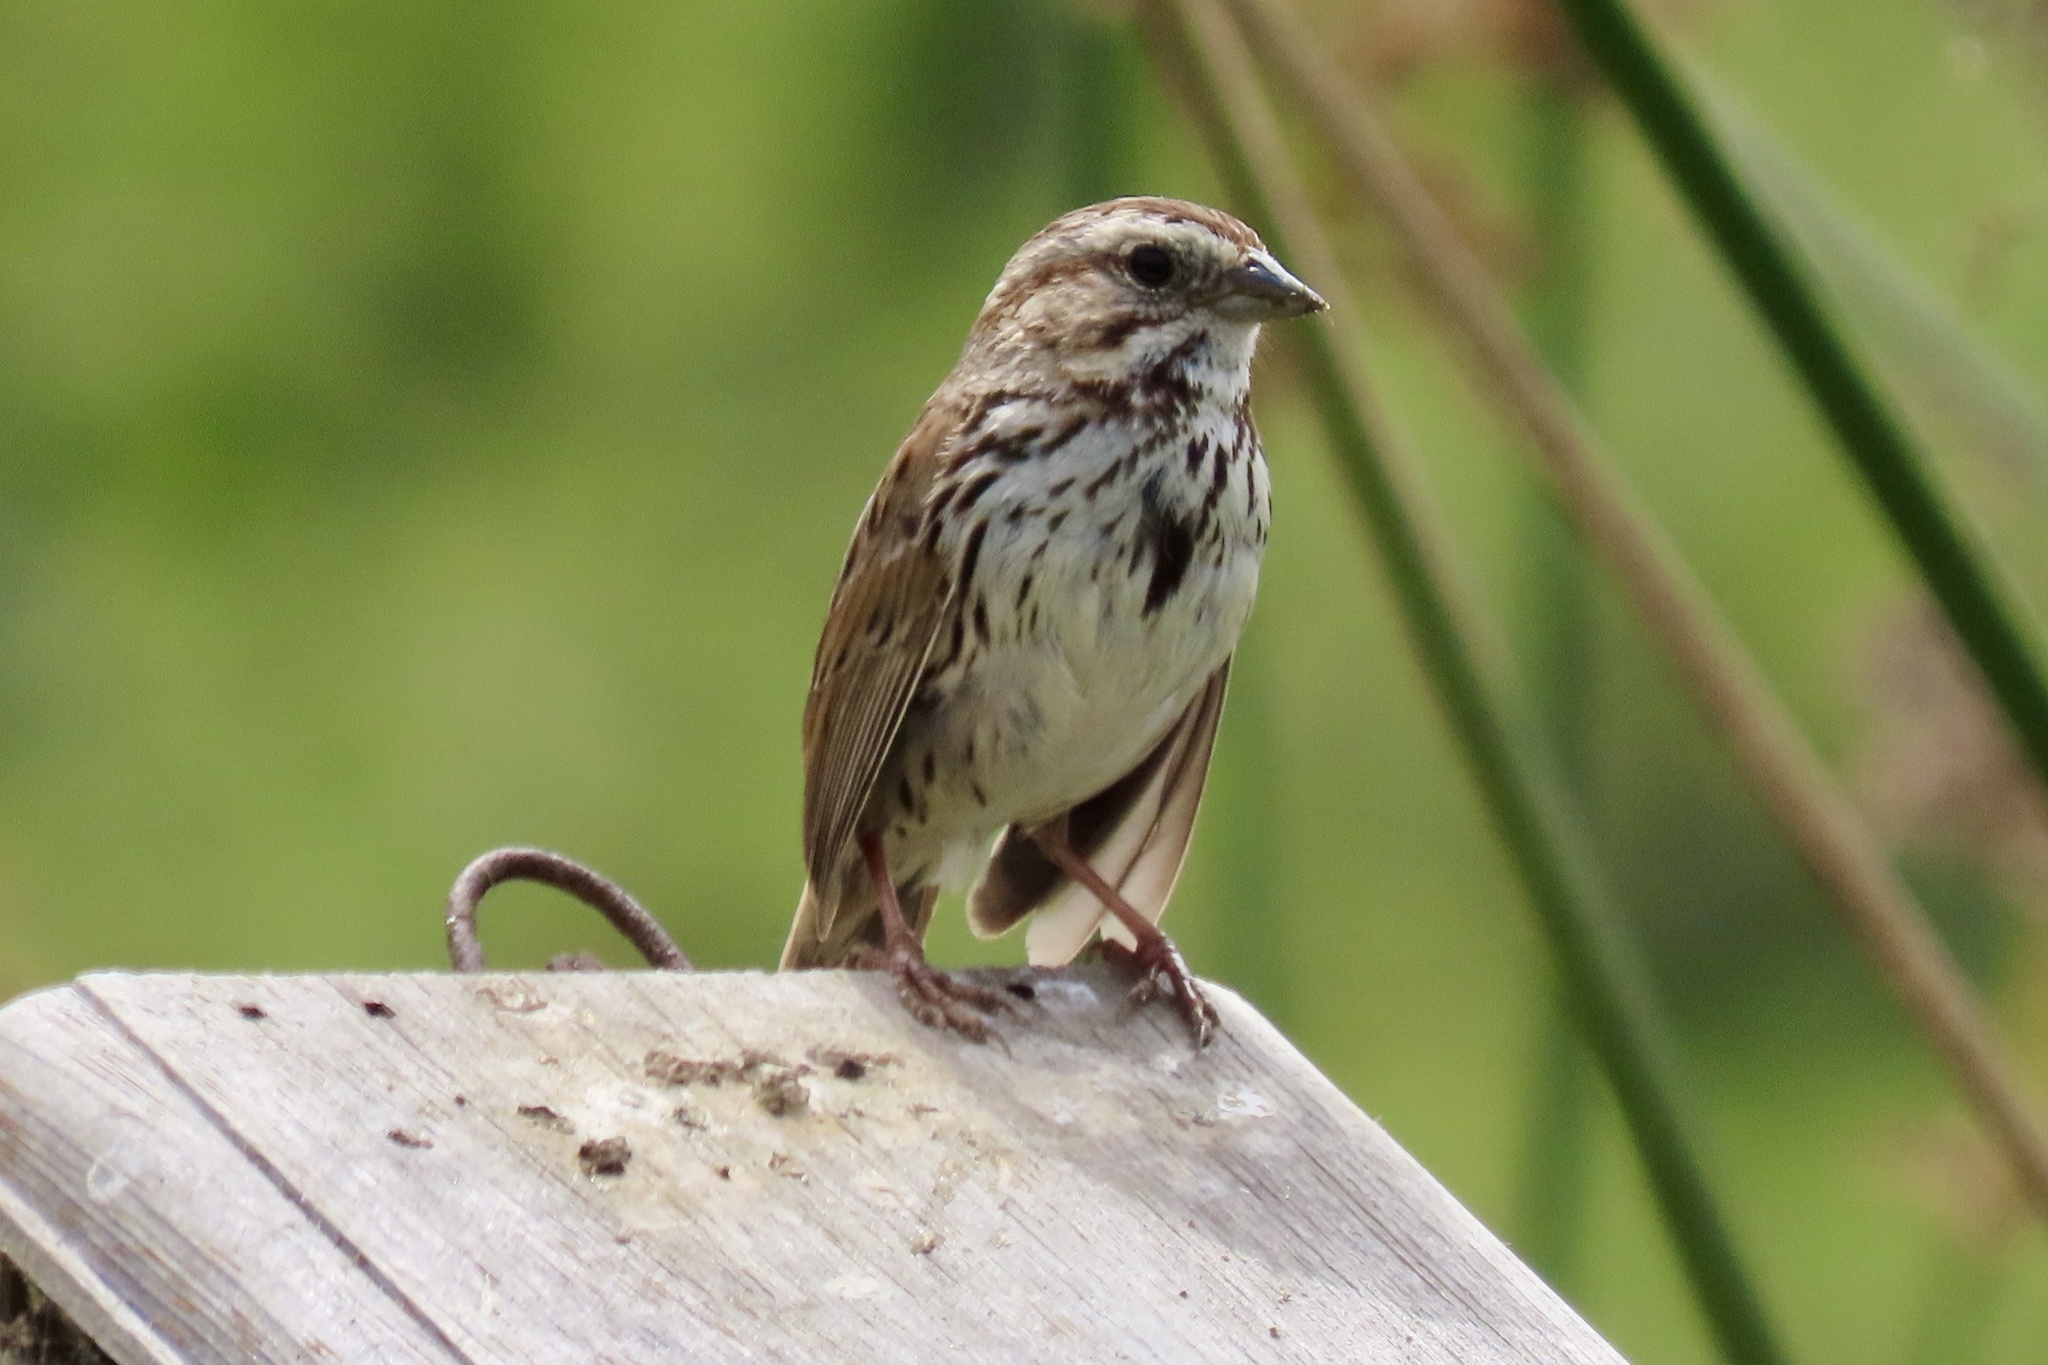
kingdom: Animalia
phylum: Chordata
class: Aves
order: Passeriformes
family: Passerellidae
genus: Melospiza
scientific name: Melospiza melodia
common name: Song sparrow
